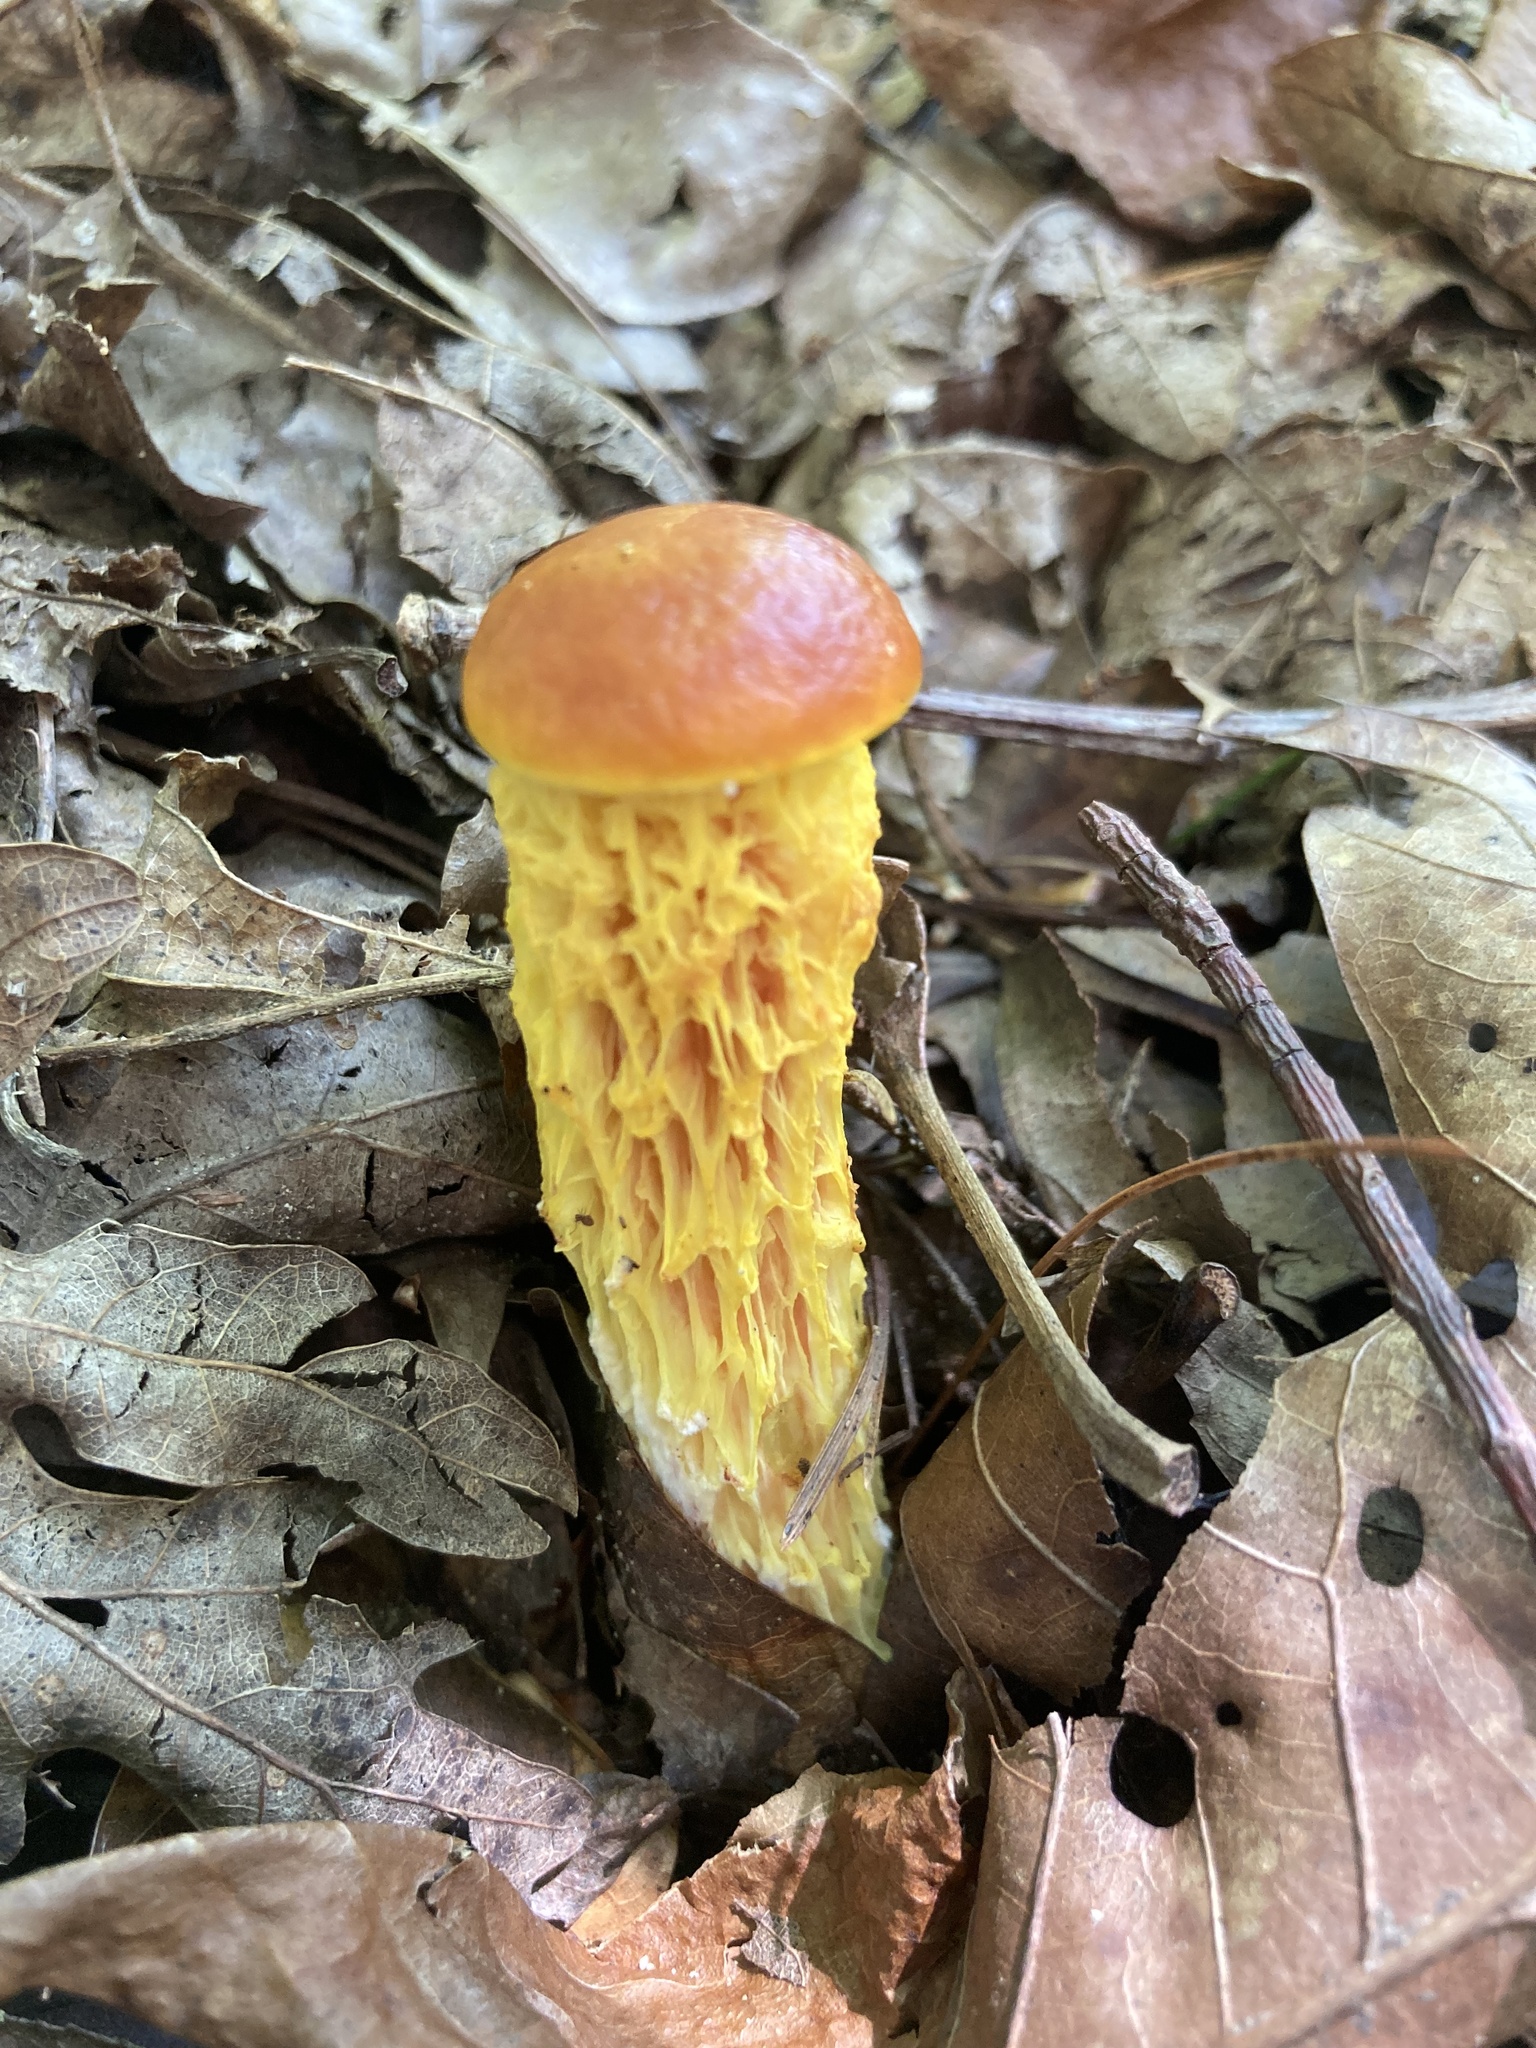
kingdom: Fungi
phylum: Basidiomycota
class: Agaricomycetes
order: Boletales
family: Boletaceae
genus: Aureoboletus
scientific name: Aureoboletus betula
